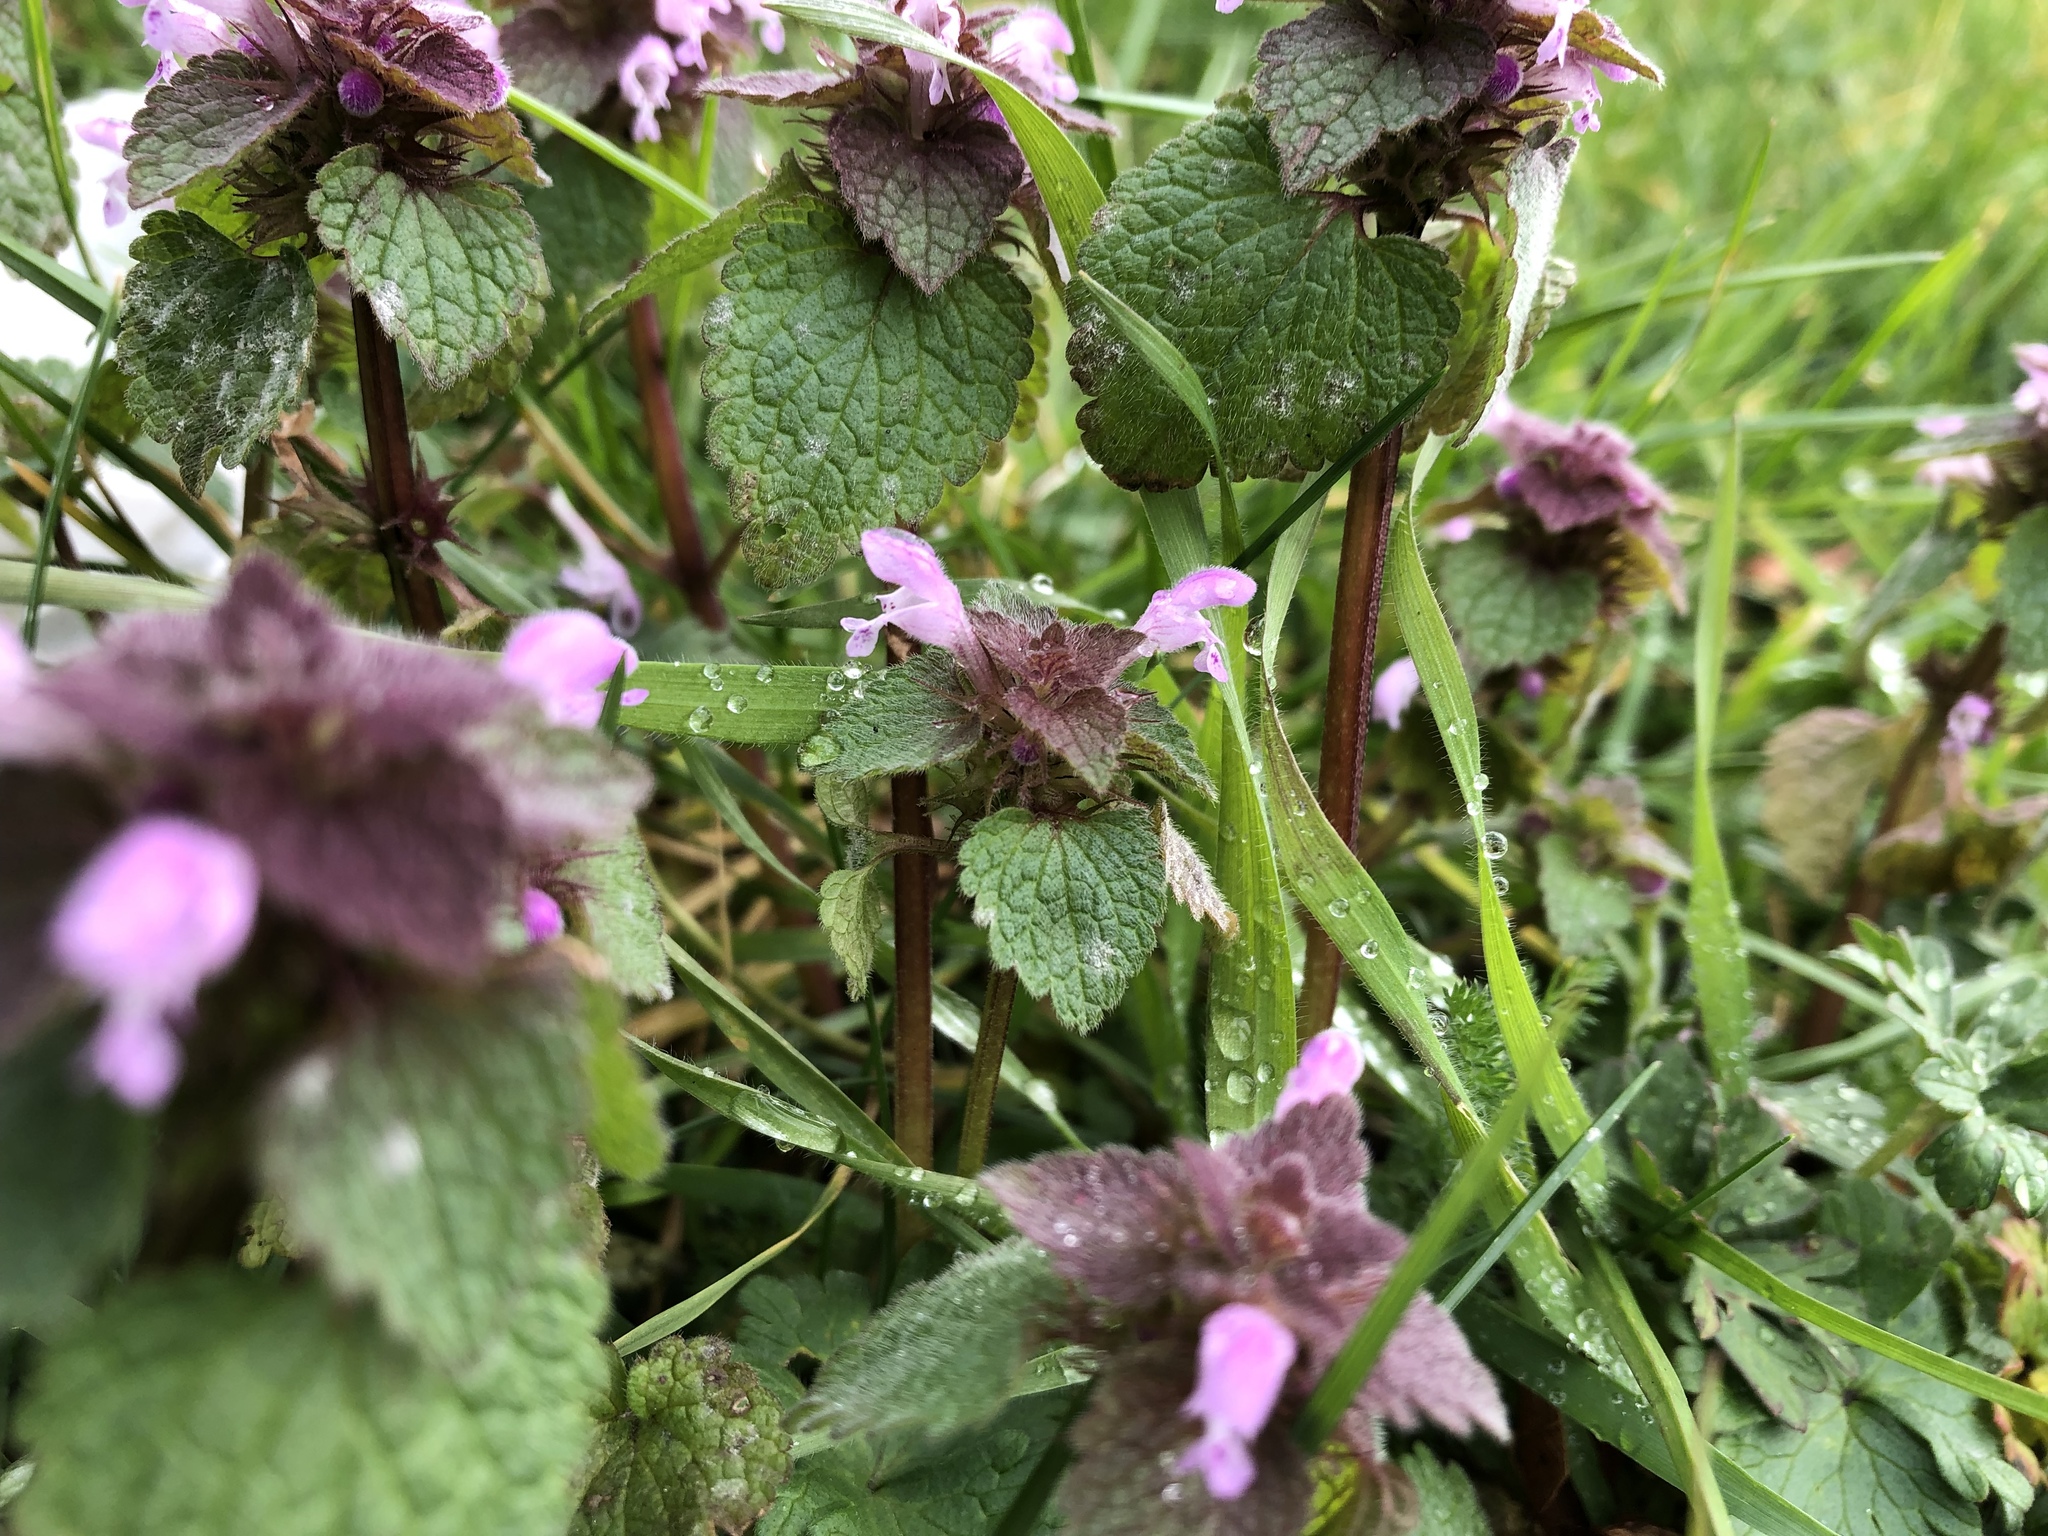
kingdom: Plantae
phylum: Tracheophyta
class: Magnoliopsida
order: Lamiales
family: Lamiaceae
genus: Lamium
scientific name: Lamium purpureum
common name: Red dead-nettle
